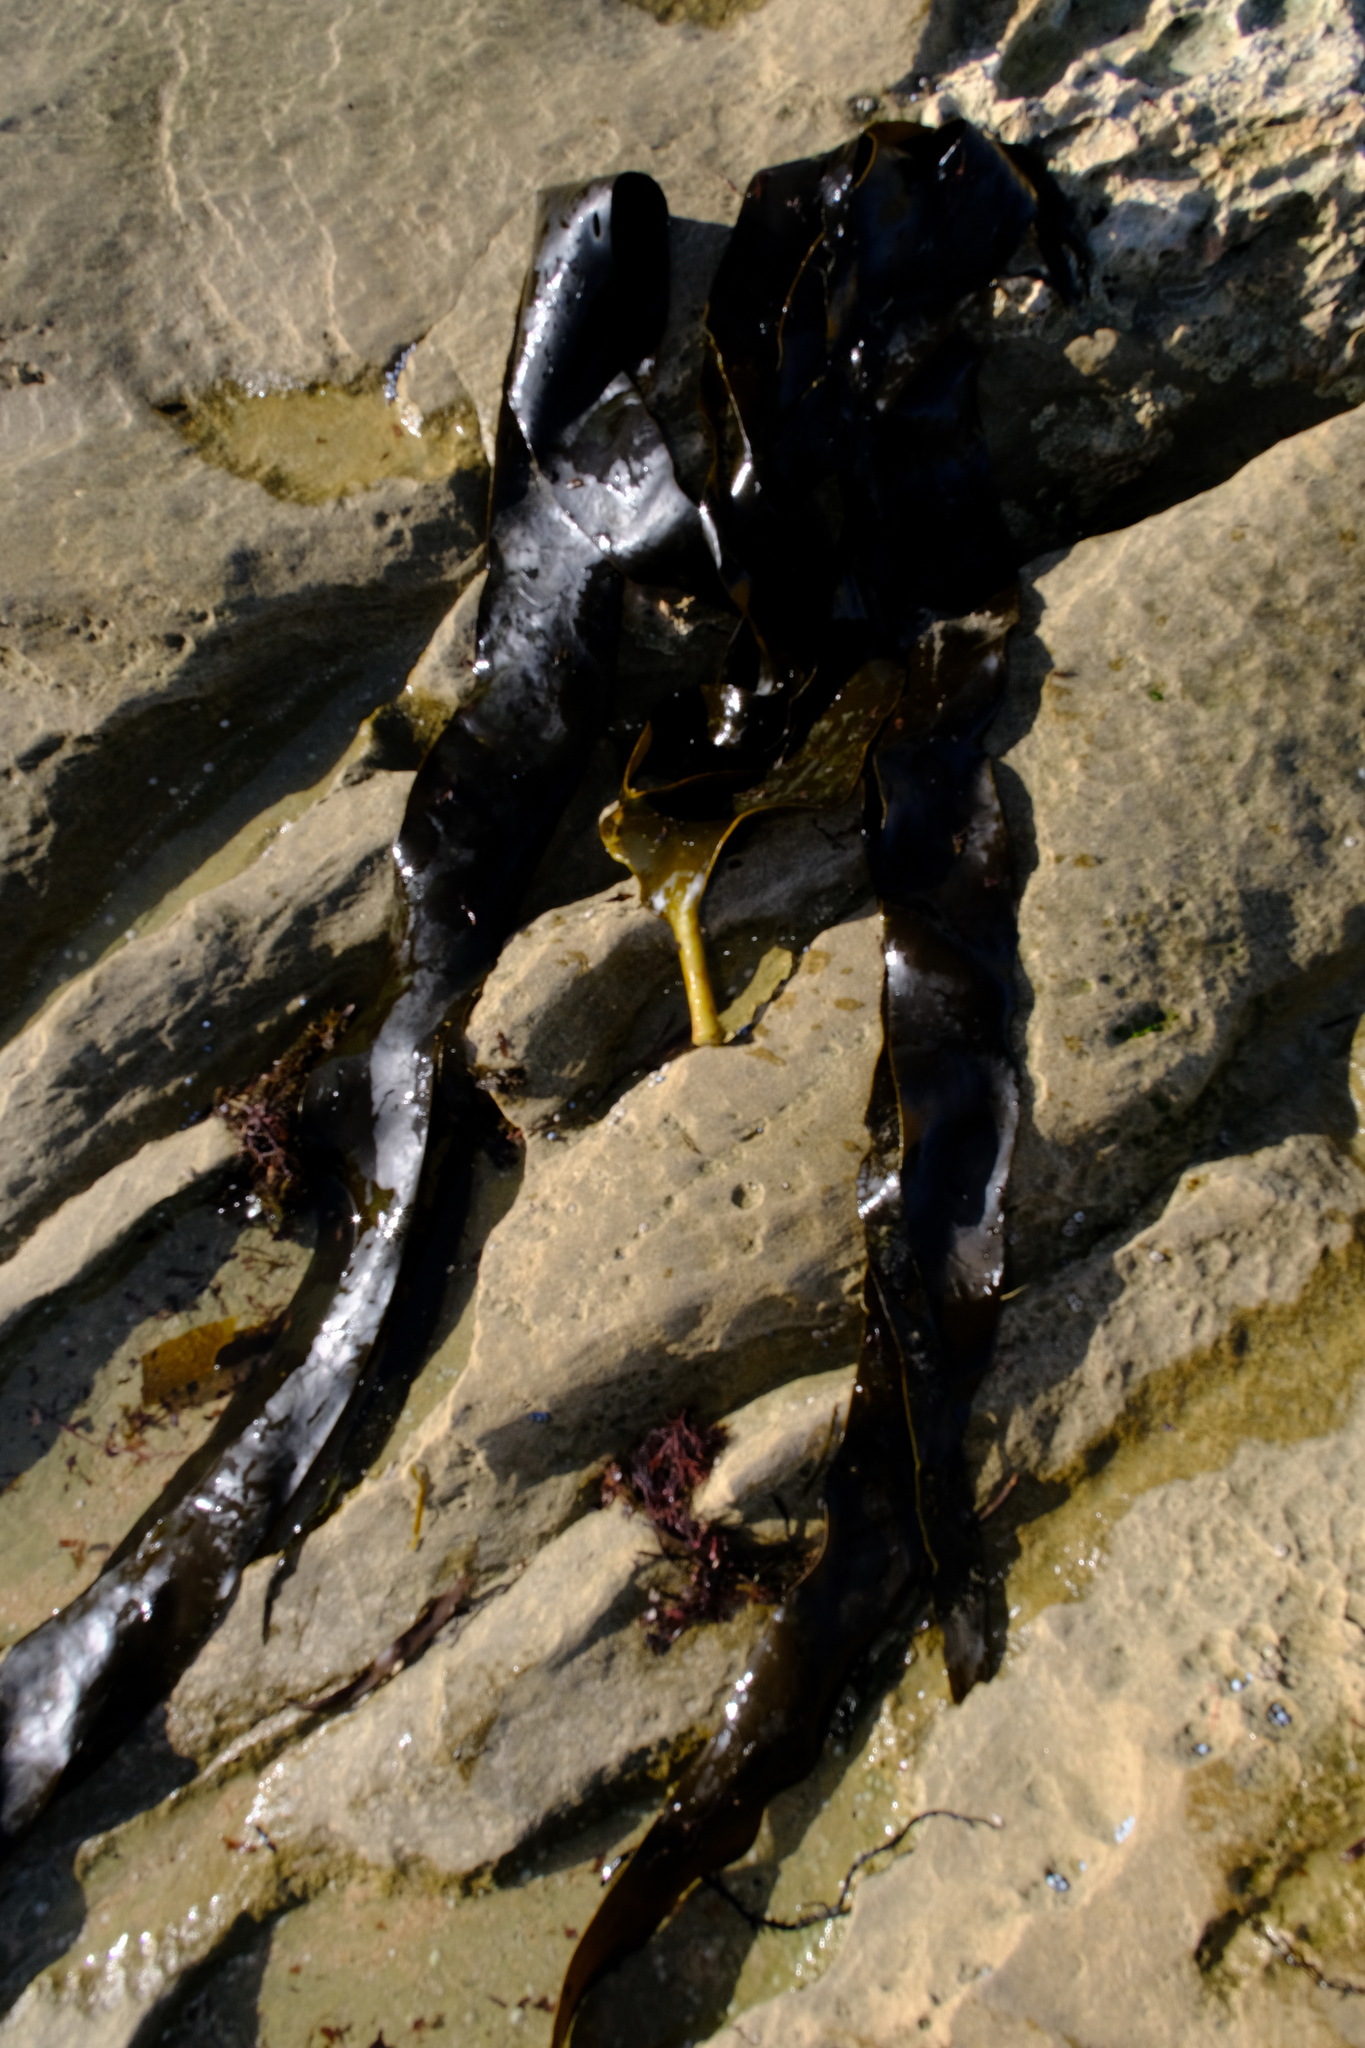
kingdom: Chromista
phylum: Ochrophyta
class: Phaeophyceae
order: Fucales
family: Durvillaeaceae
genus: Durvillaea
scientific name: Durvillaea
